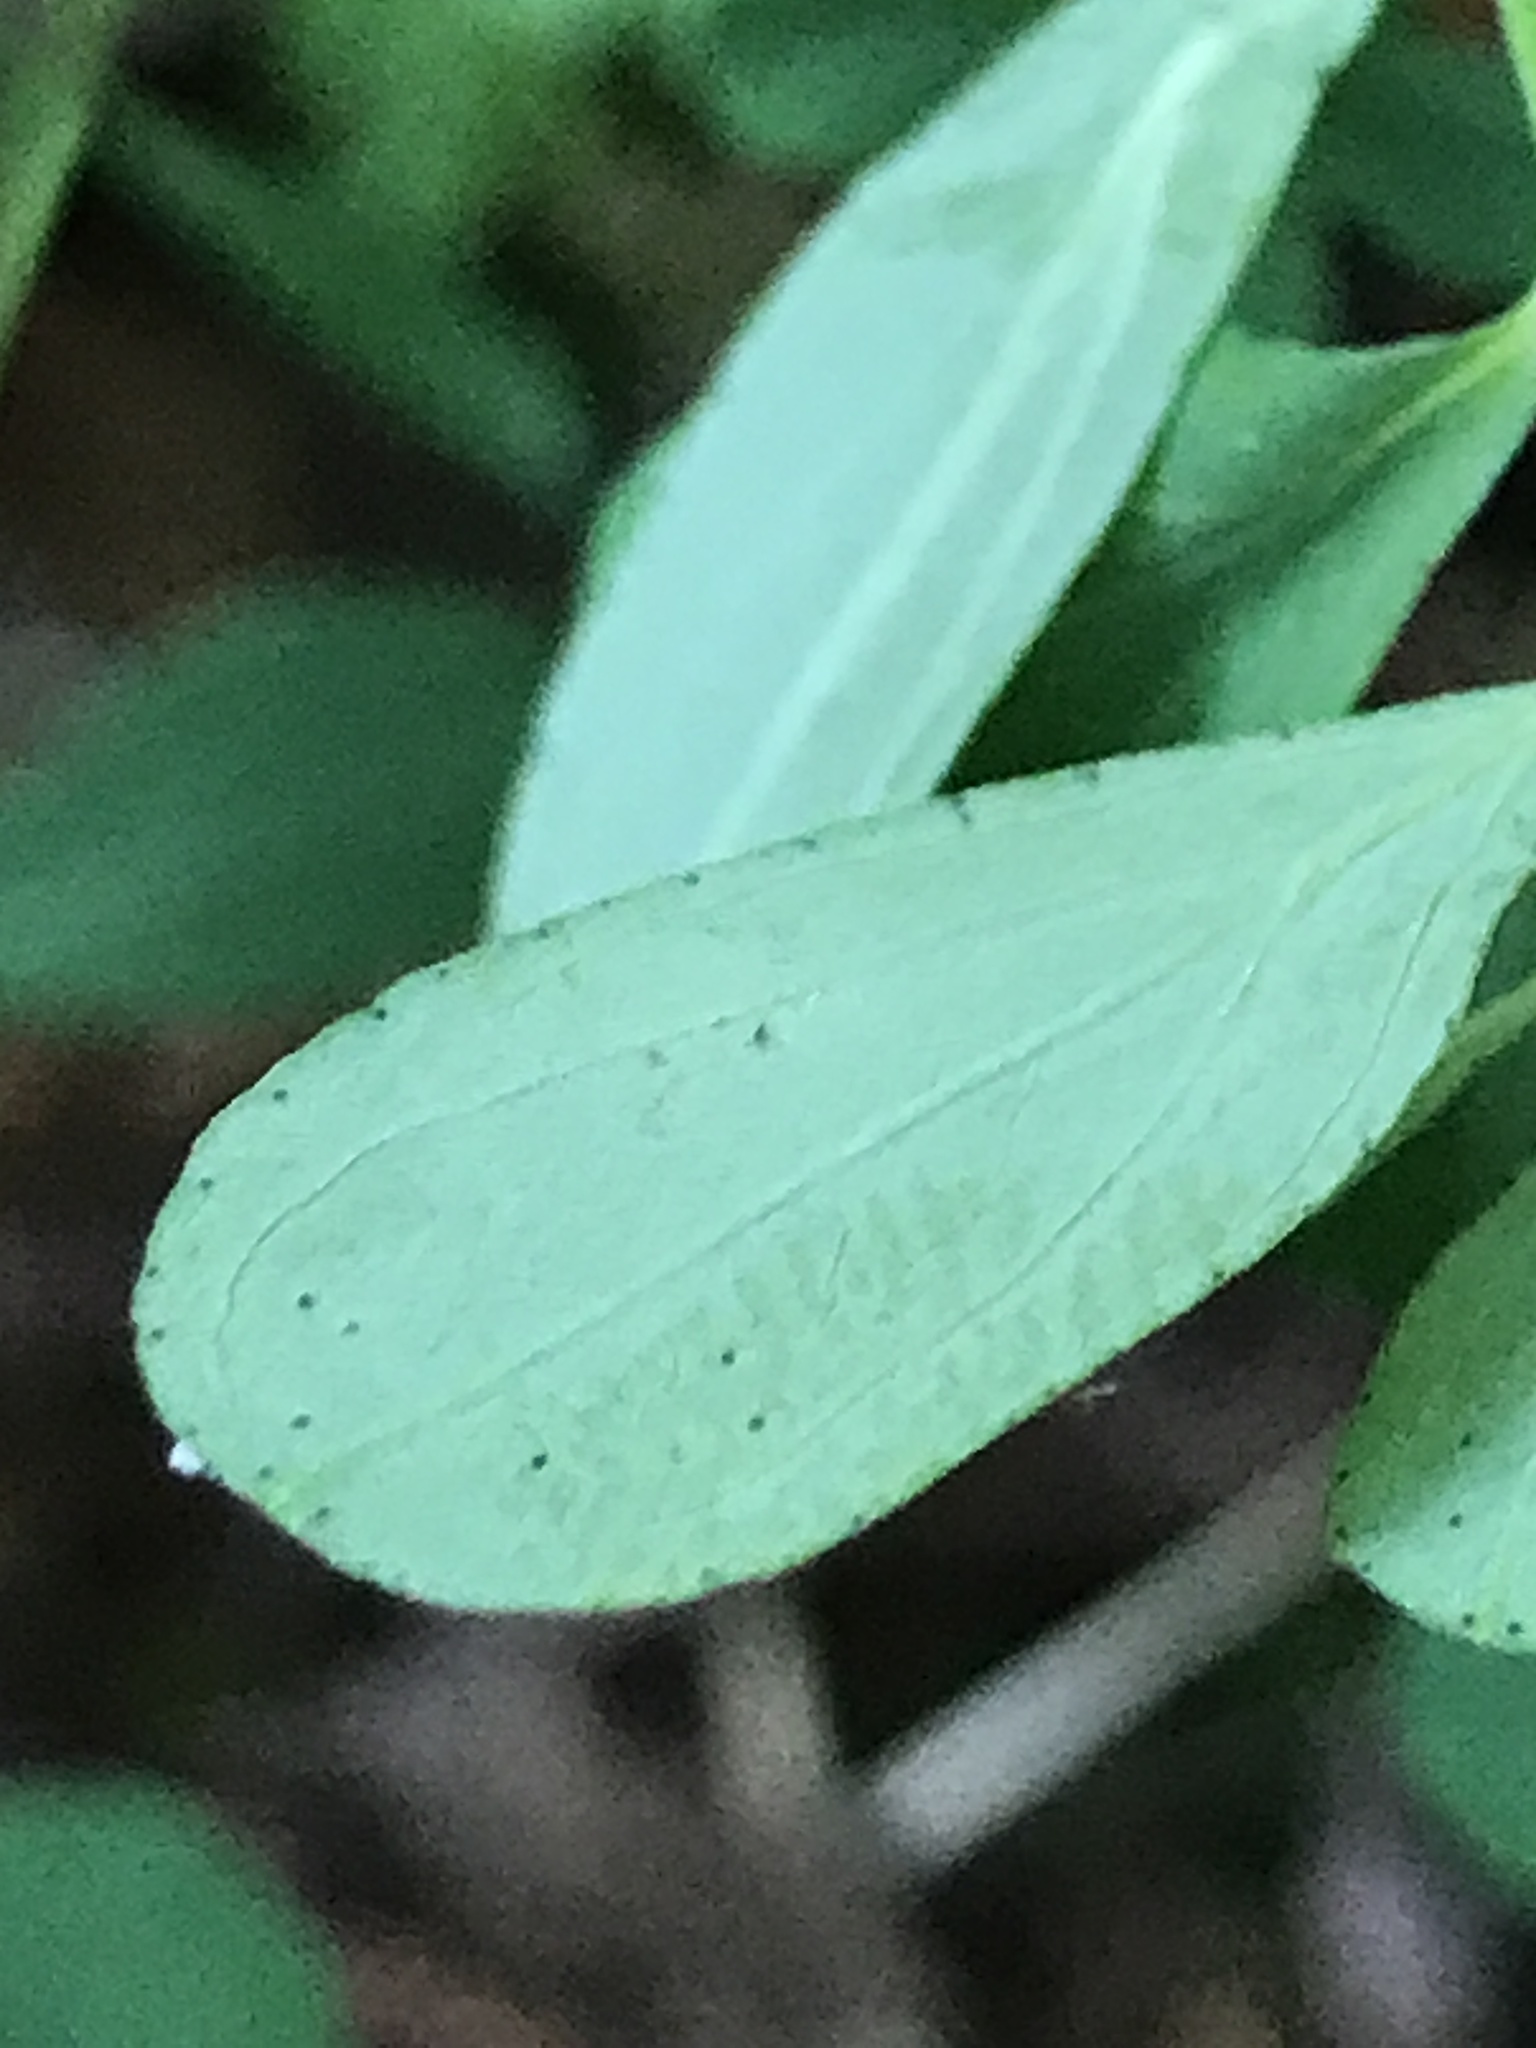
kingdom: Plantae
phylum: Tracheophyta
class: Magnoliopsida
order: Malpighiales
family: Hypericaceae
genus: Hypericum
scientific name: Hypericum perforatum
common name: Common st. johnswort
